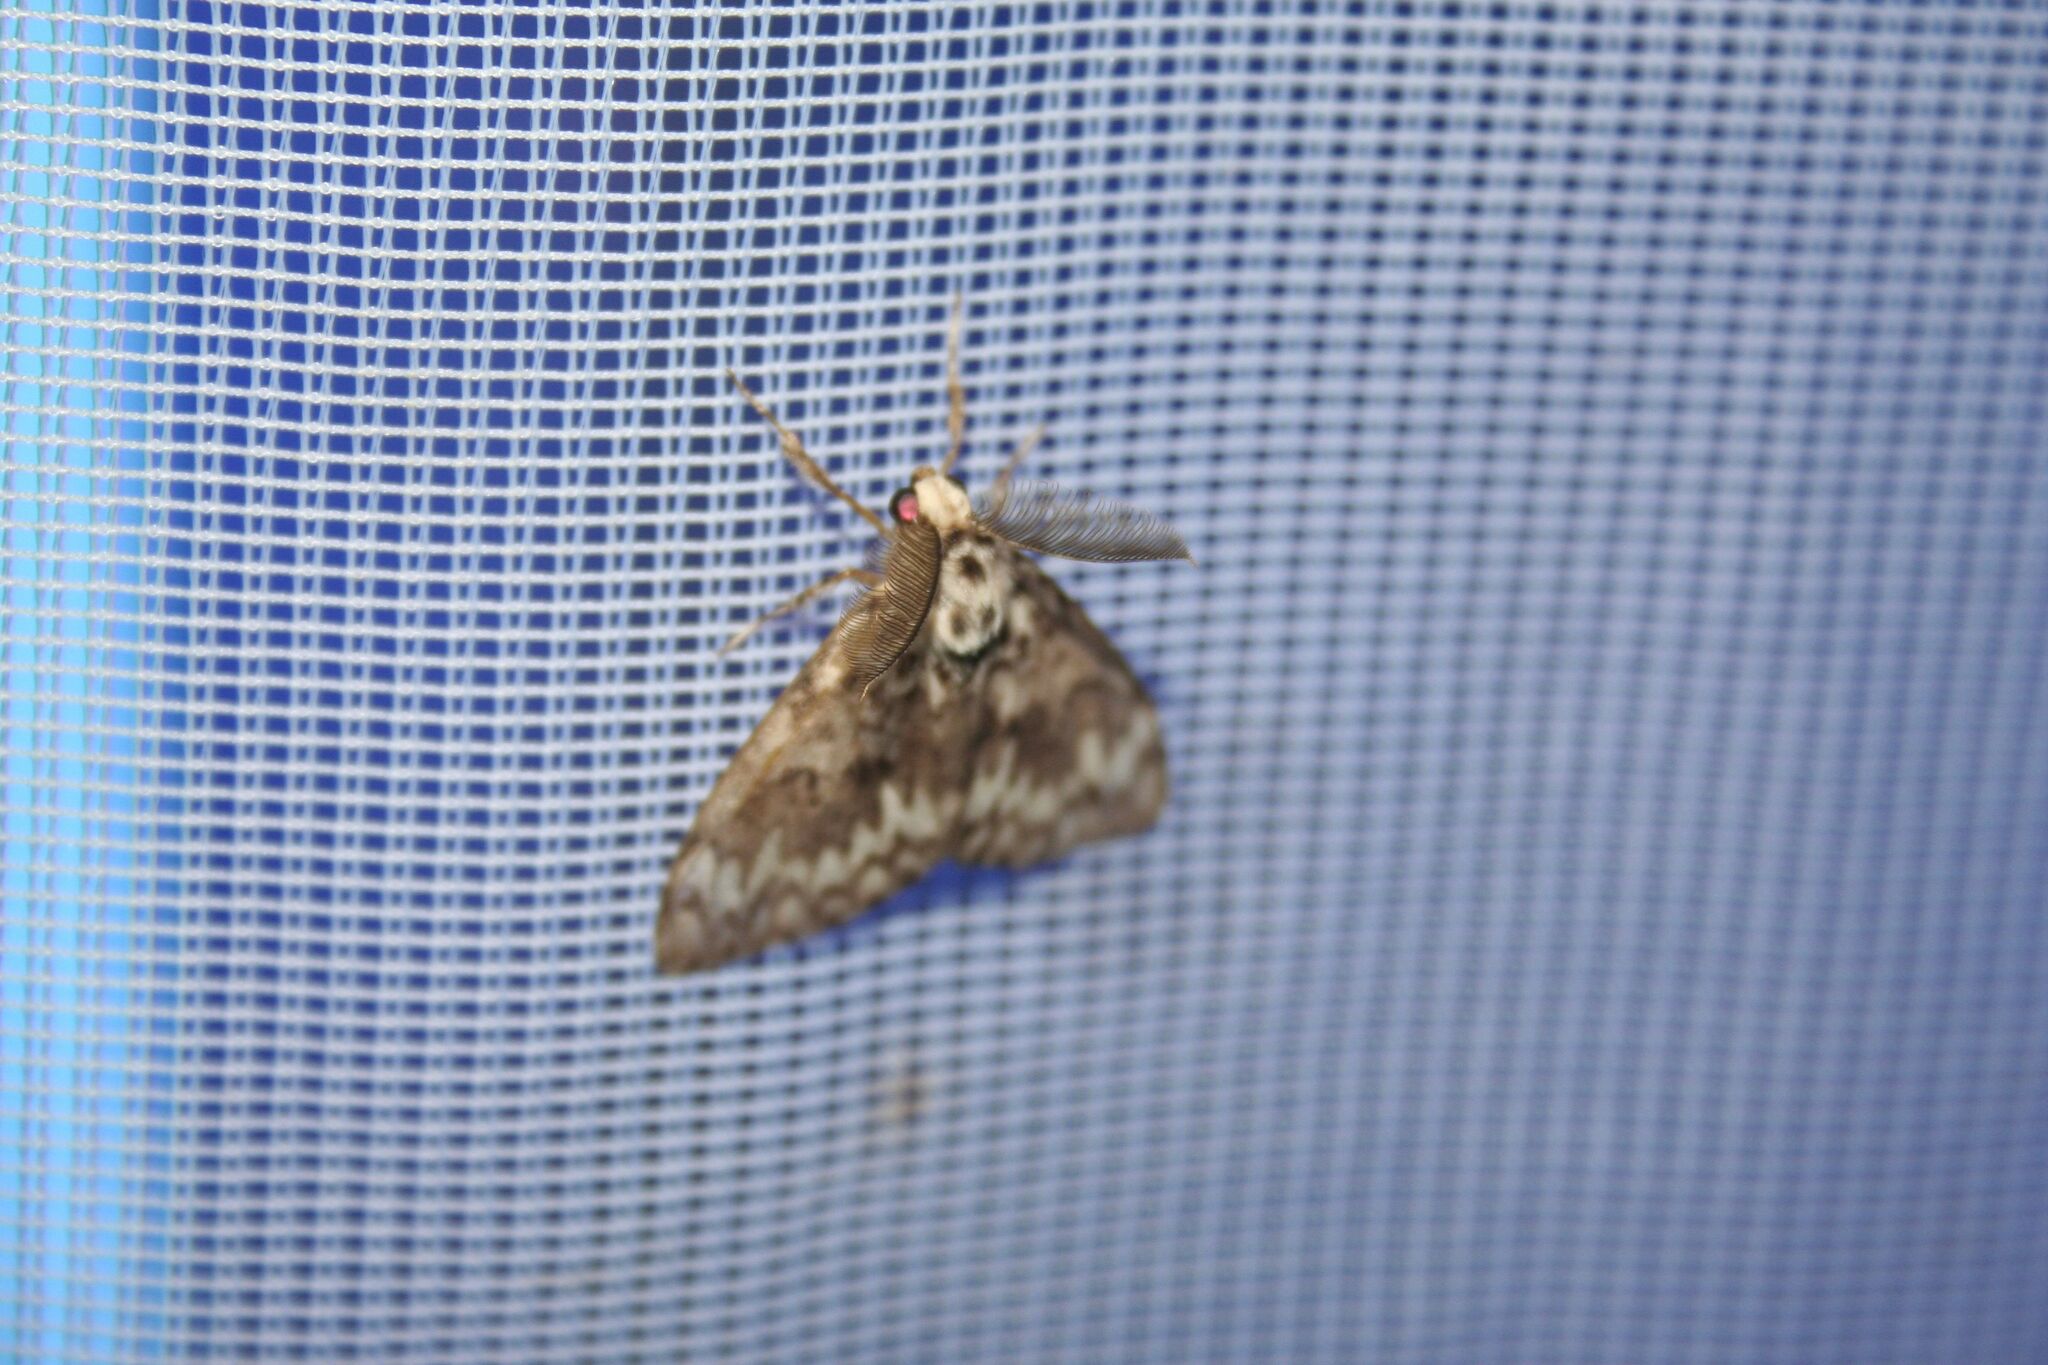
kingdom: Animalia
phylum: Arthropoda
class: Insecta
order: Lepidoptera
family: Erebidae
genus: Lymantria
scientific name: Lymantria monacha
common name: Black arches
